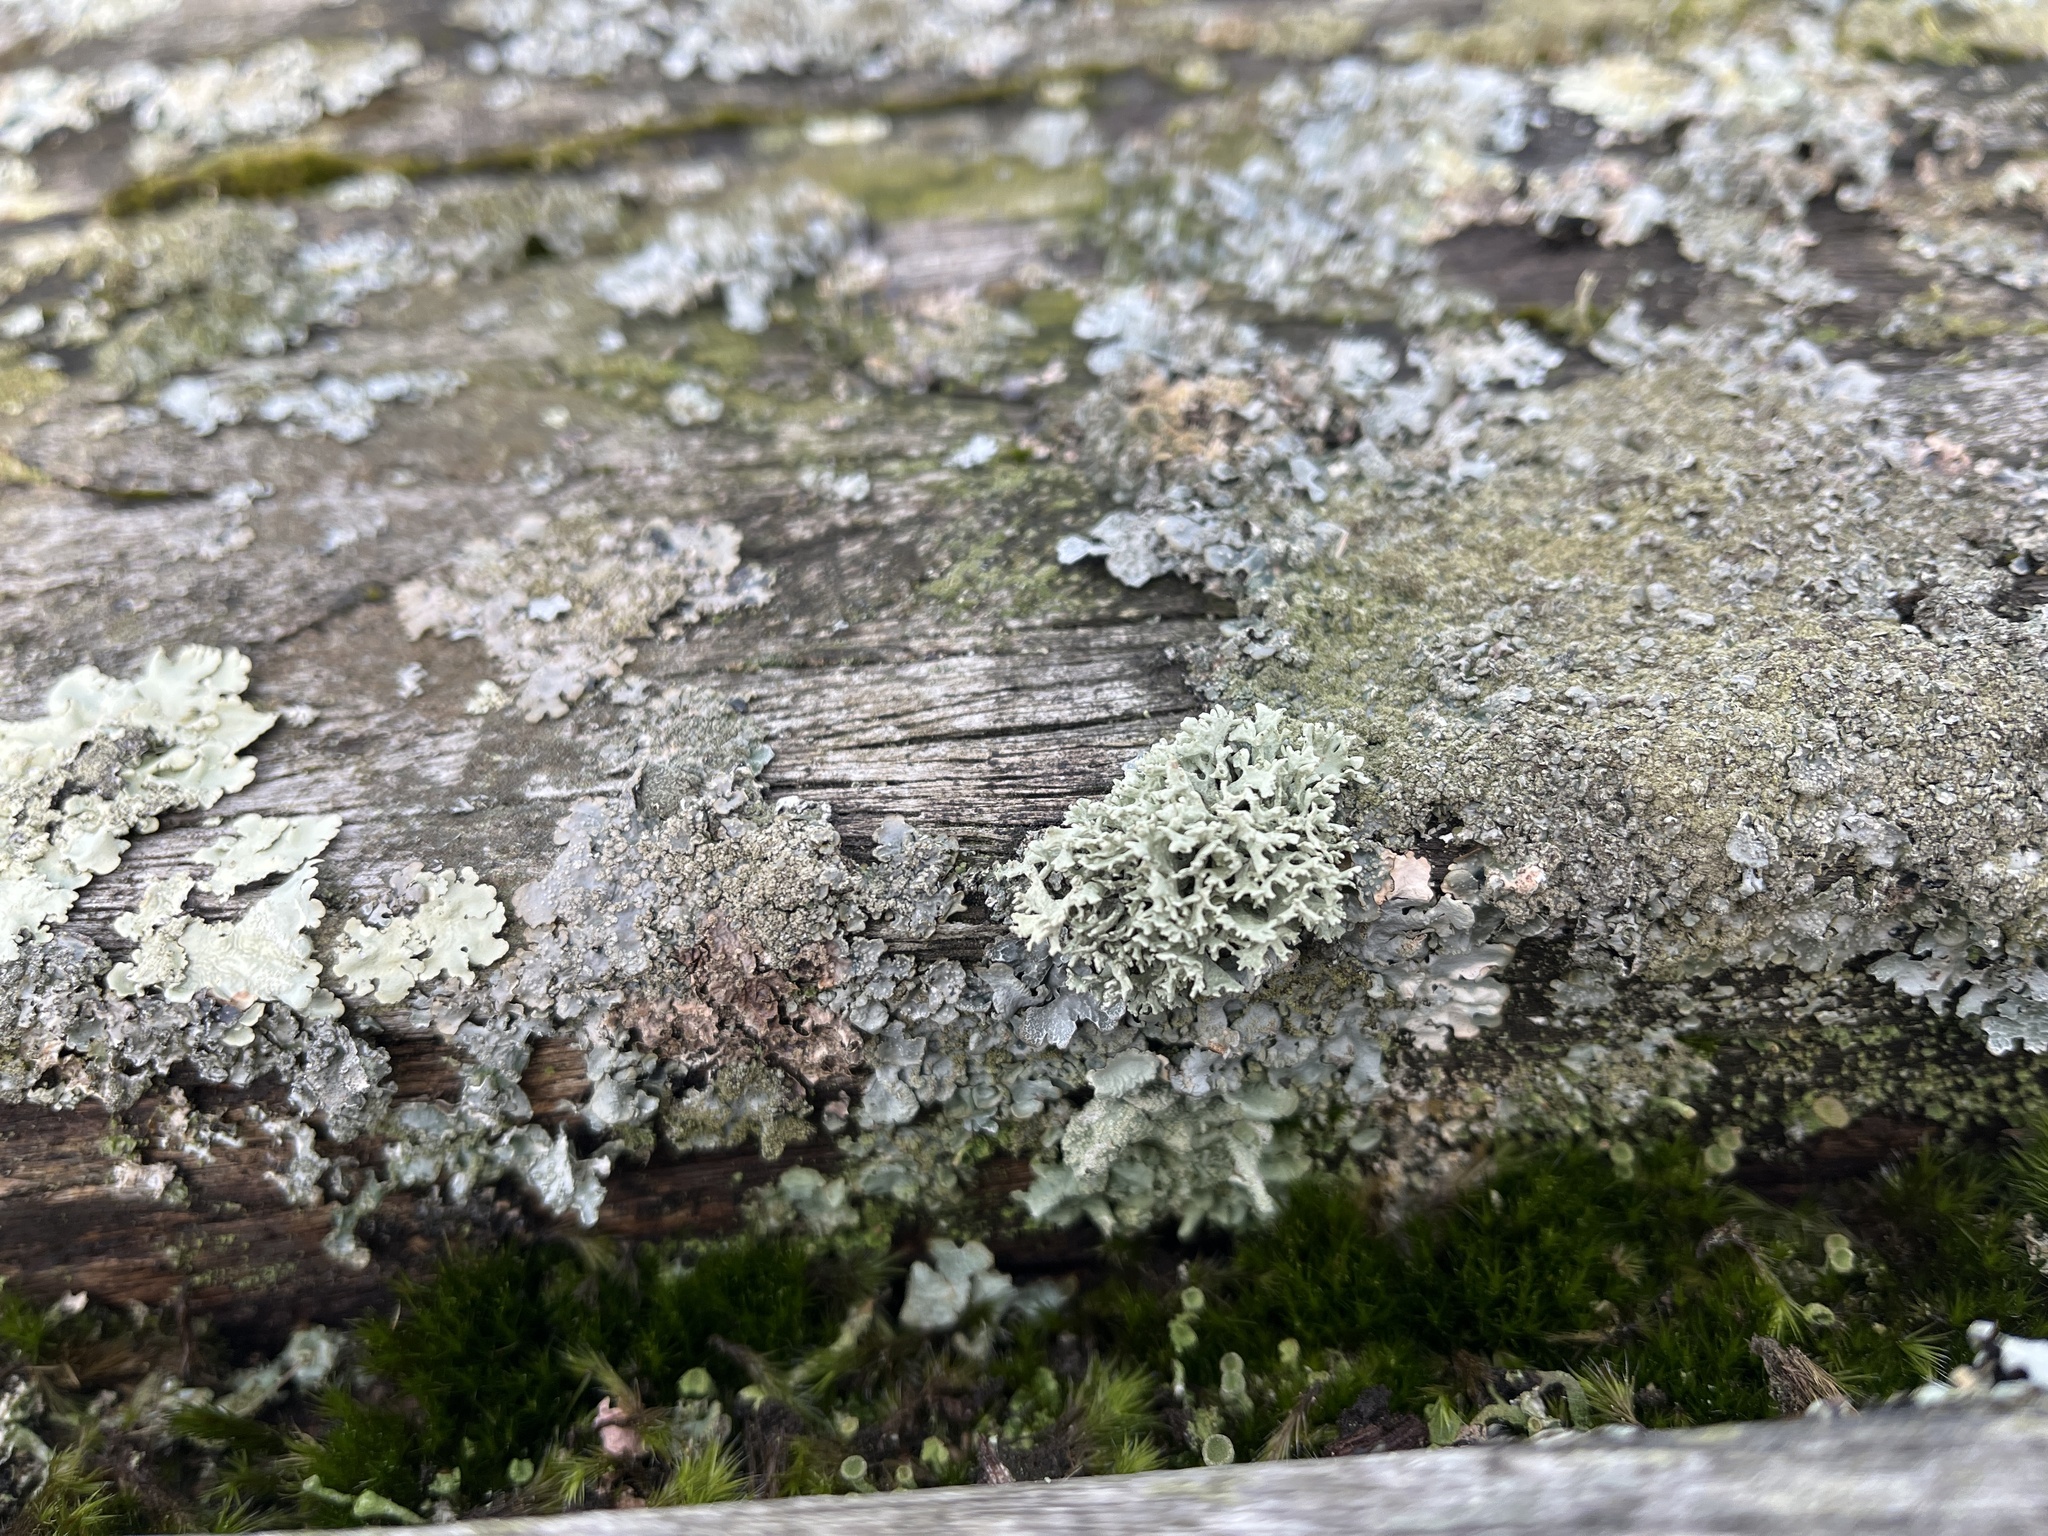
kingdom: Fungi
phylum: Ascomycota
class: Lecanoromycetes
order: Lecanorales
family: Parmeliaceae
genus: Evernia
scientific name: Evernia prunastri
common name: Oak moss
